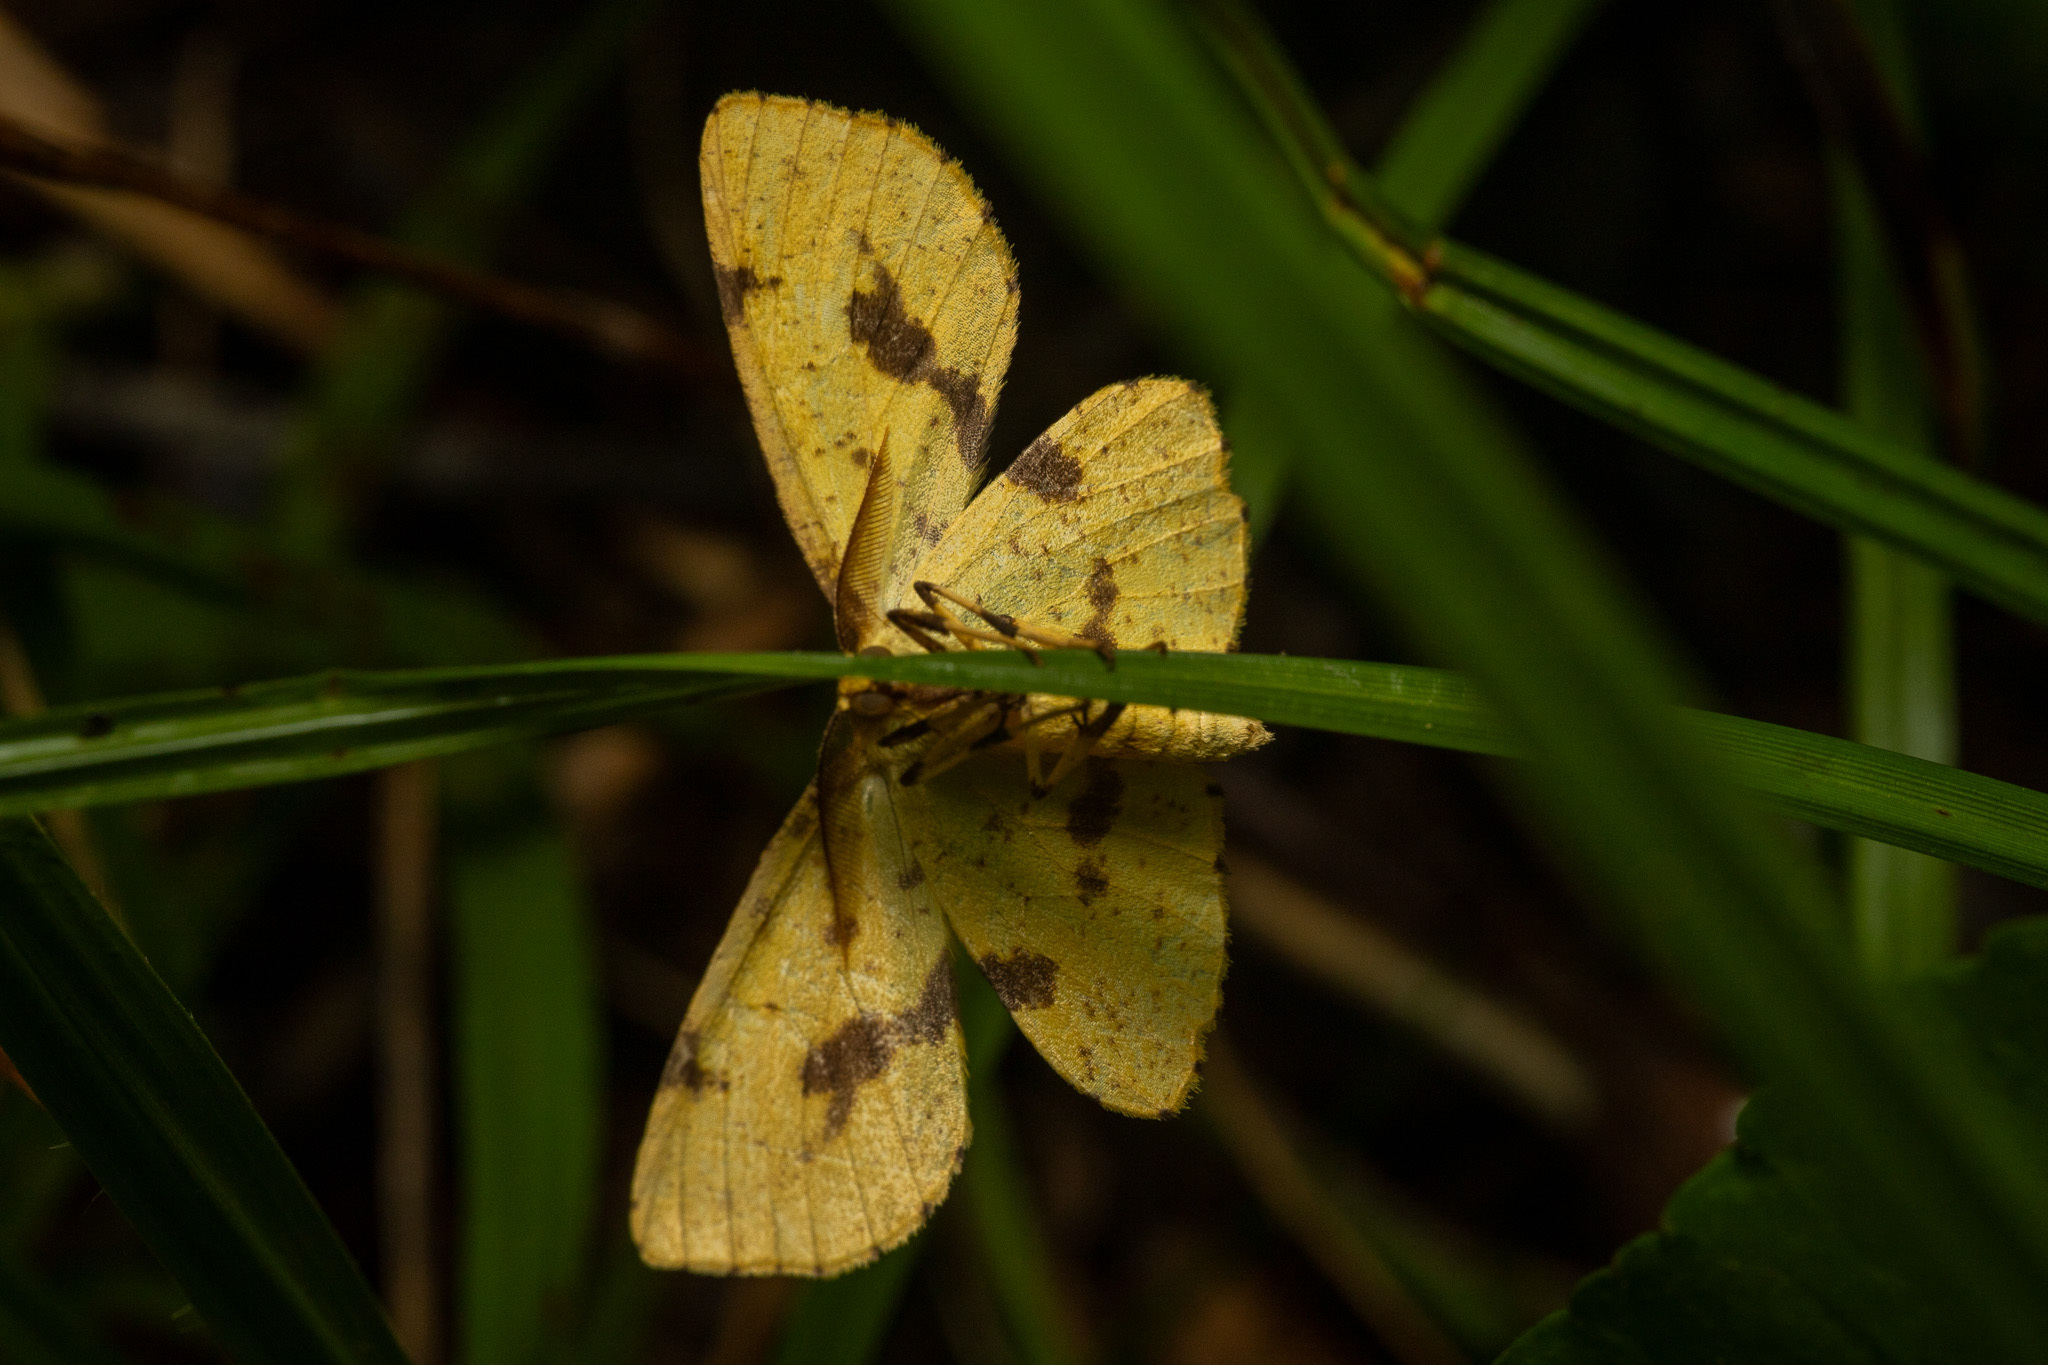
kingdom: Animalia
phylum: Arthropoda
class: Insecta
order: Lepidoptera
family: Geometridae
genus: Xanthotype
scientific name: Xanthotype
